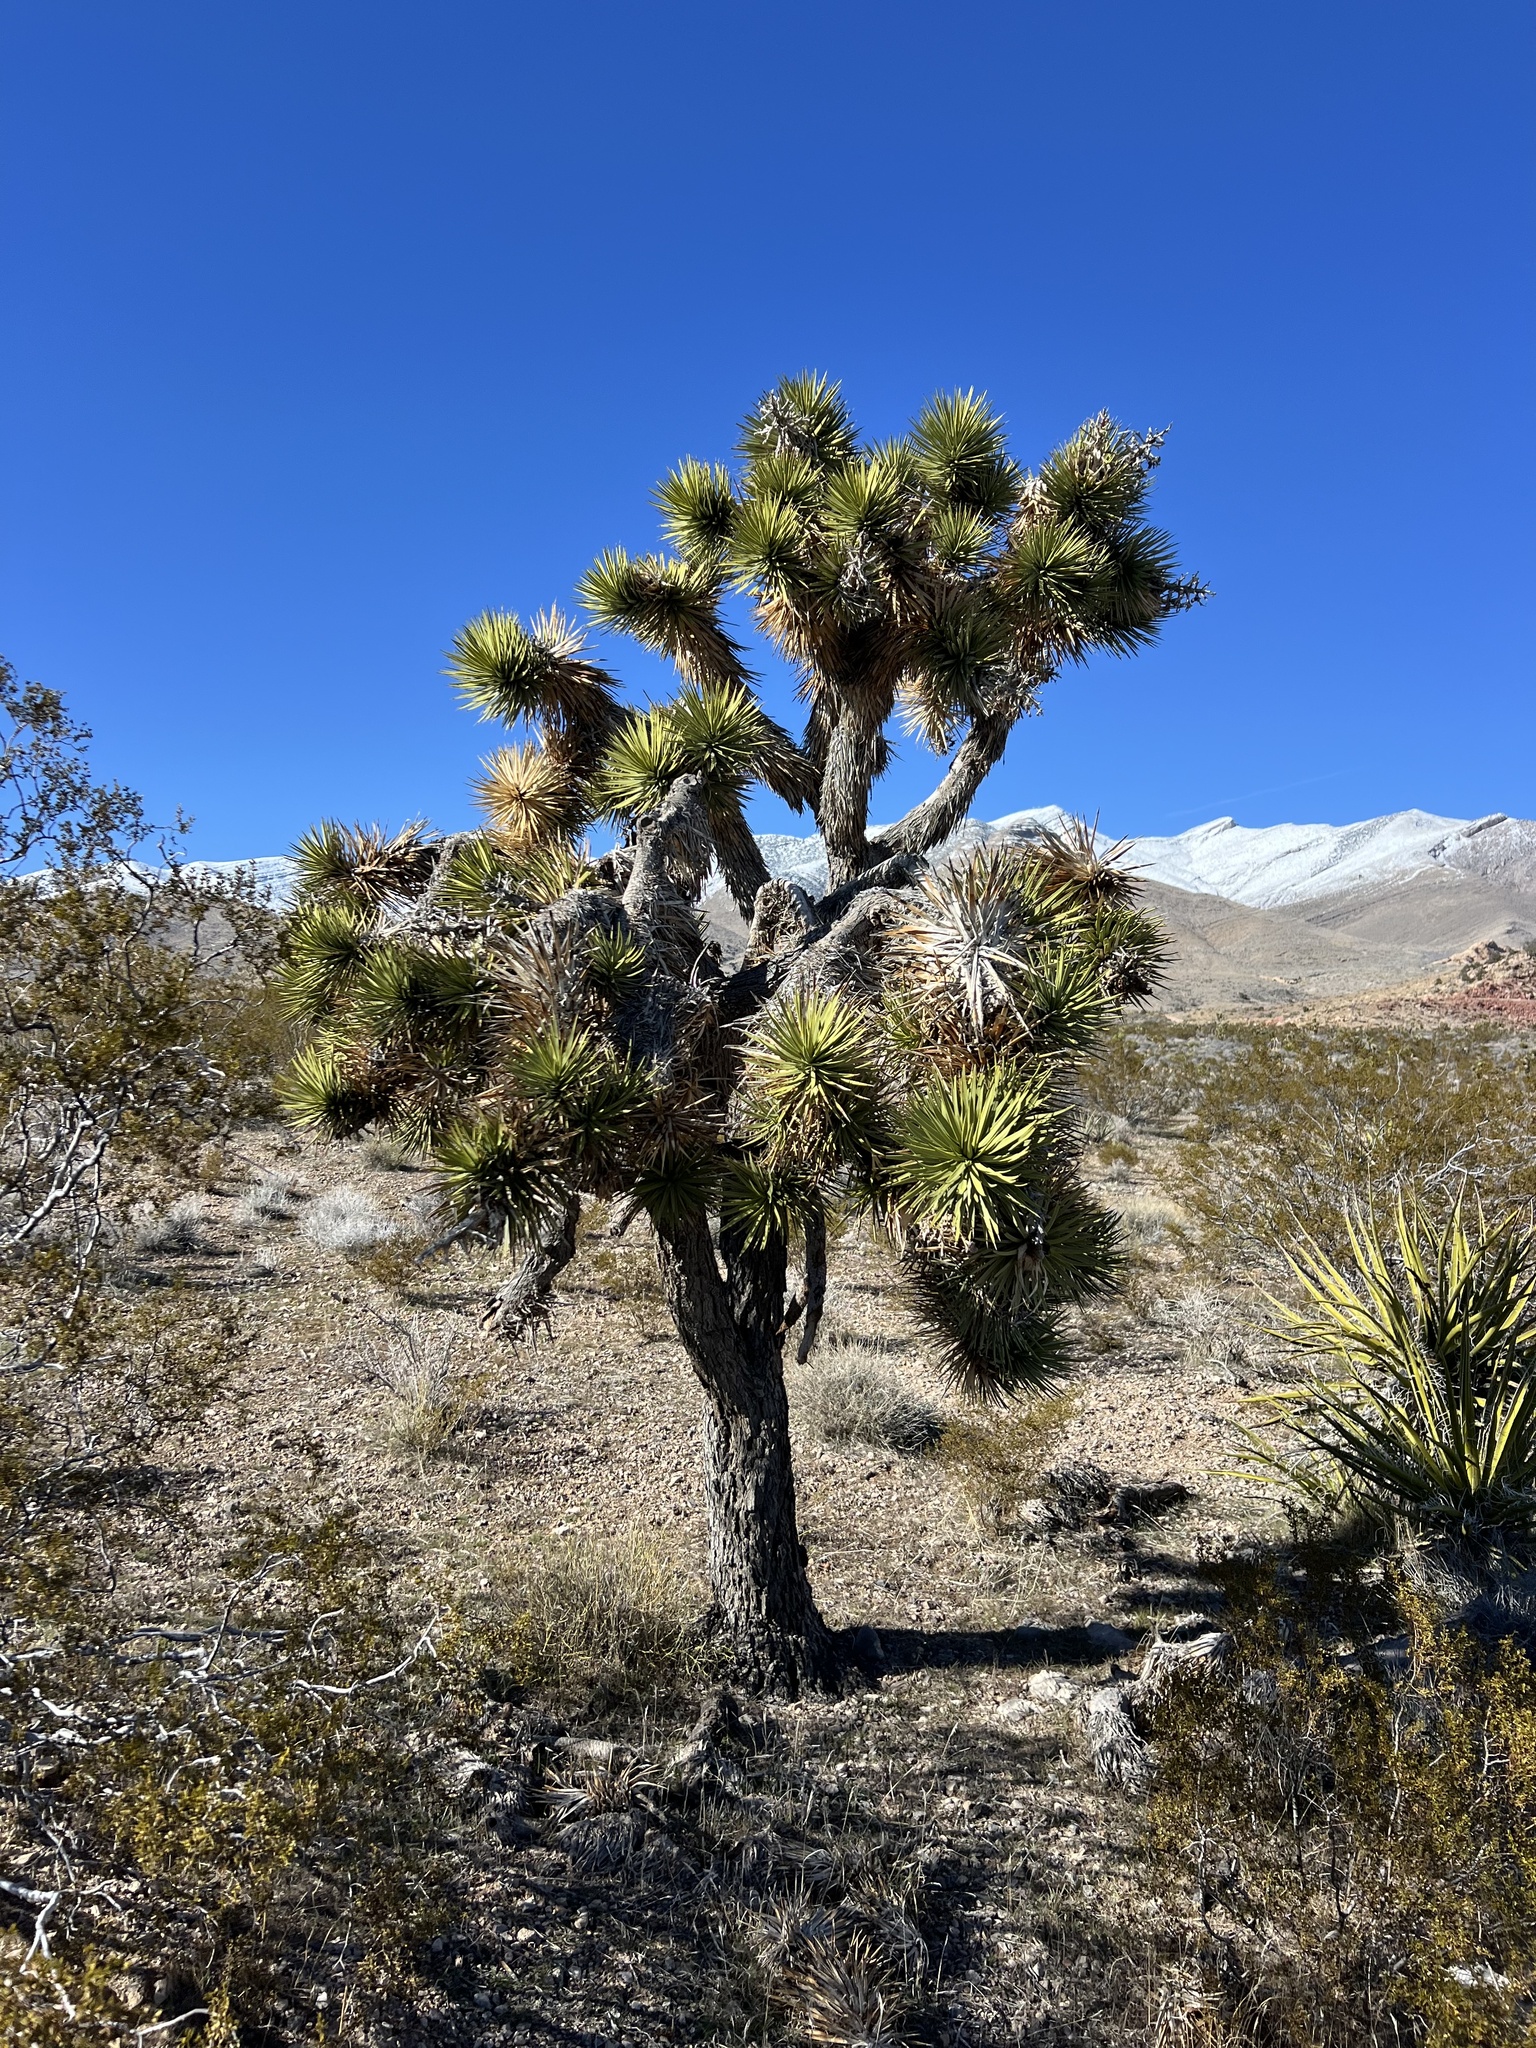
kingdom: Plantae
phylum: Tracheophyta
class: Liliopsida
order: Asparagales
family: Asparagaceae
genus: Yucca
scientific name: Yucca brevifolia
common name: Joshua tree
